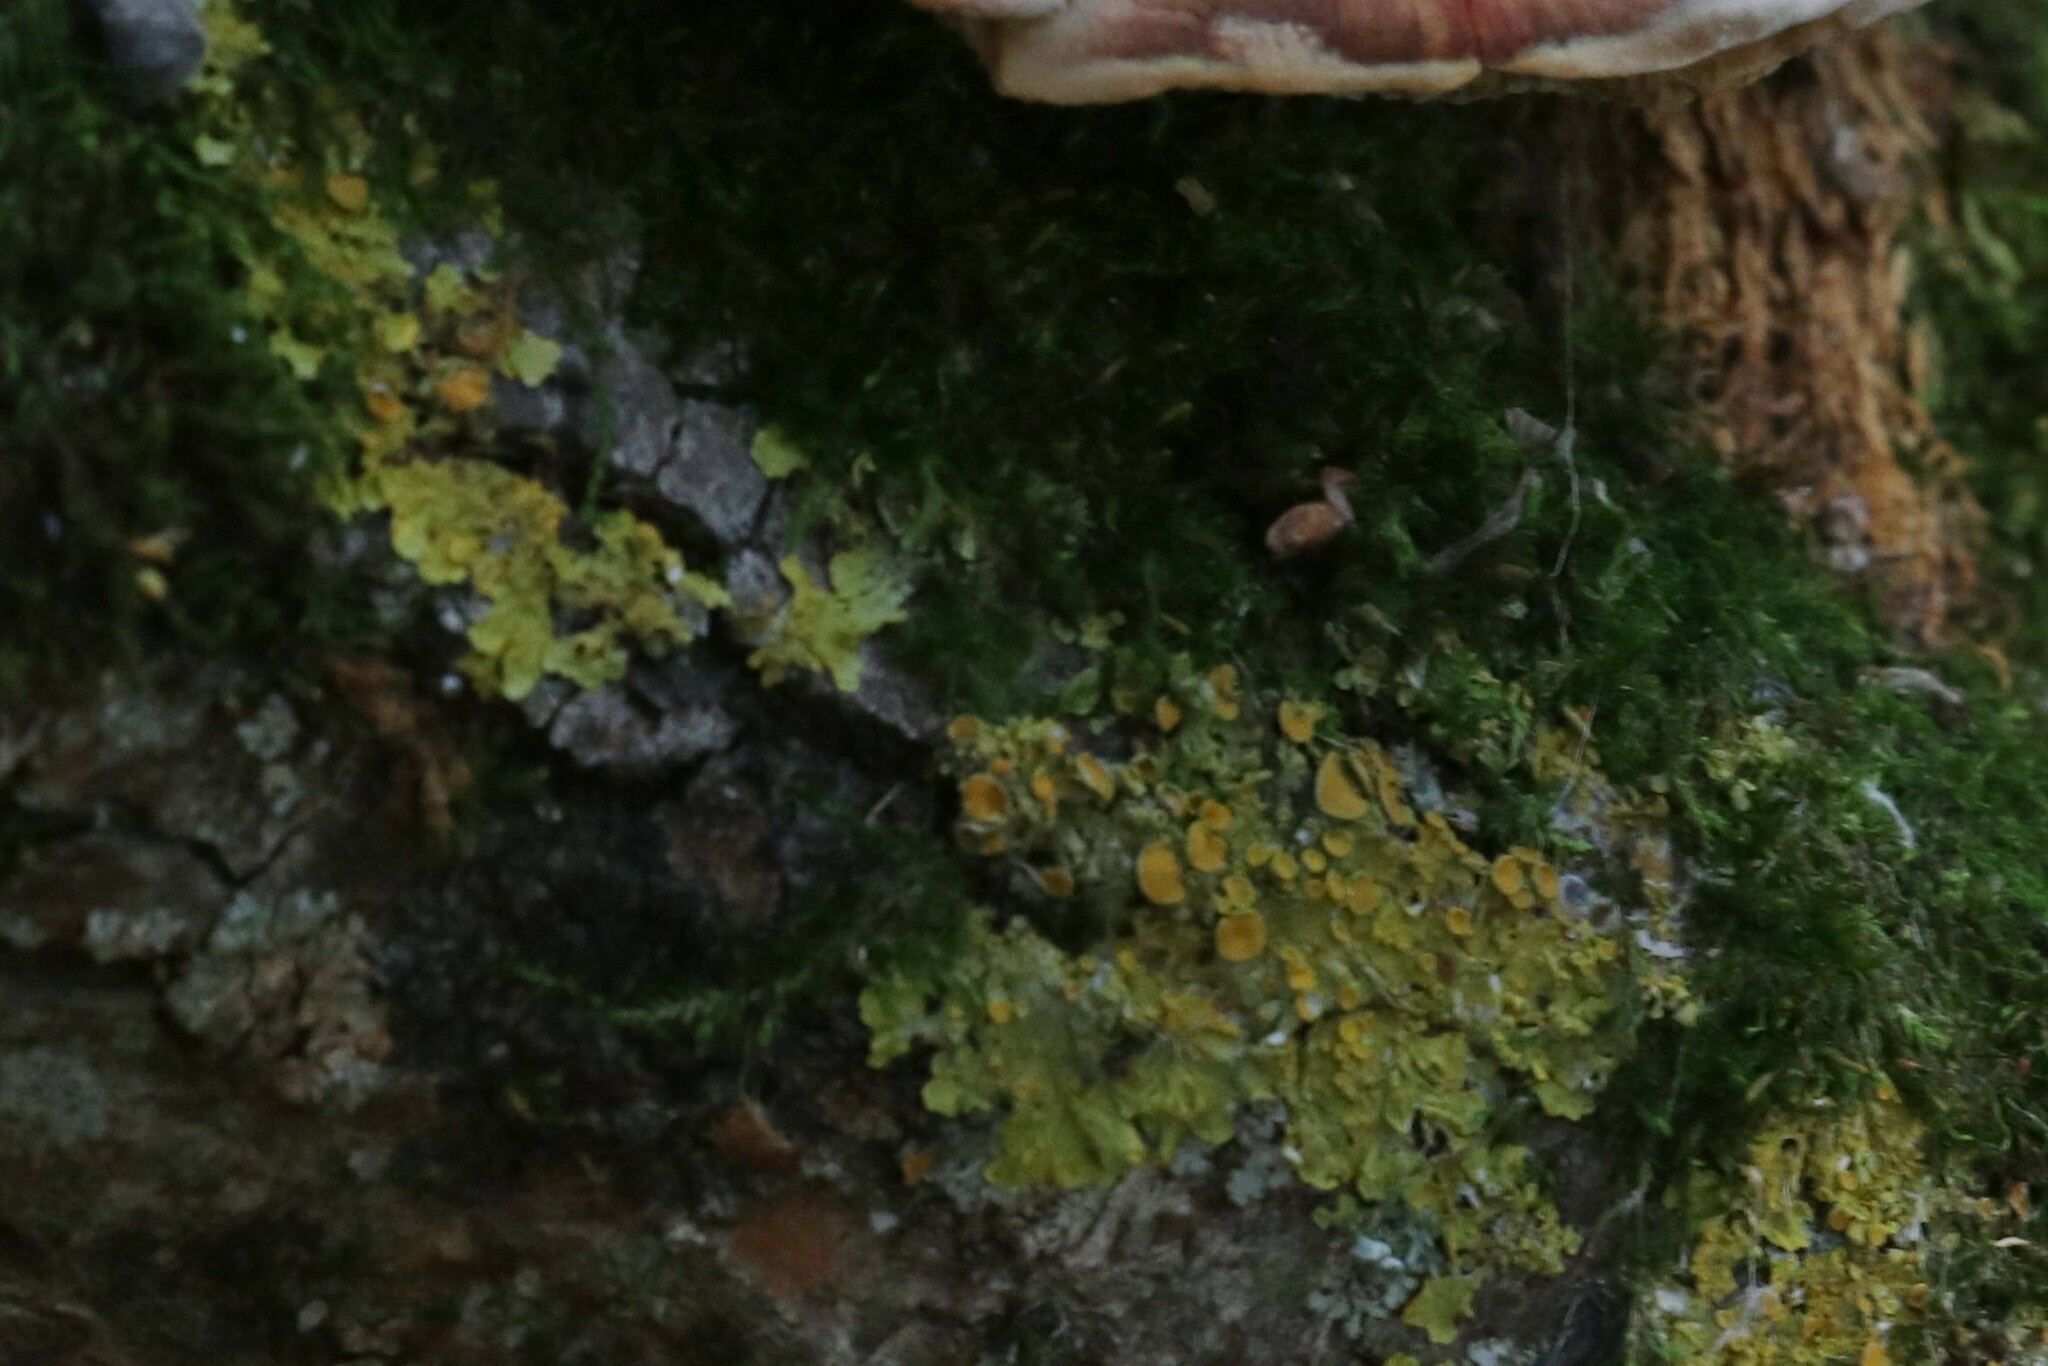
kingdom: Fungi
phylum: Ascomycota
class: Lecanoromycetes
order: Teloschistales
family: Teloschistaceae
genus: Xanthoria
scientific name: Xanthoria parietina
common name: Common orange lichen
